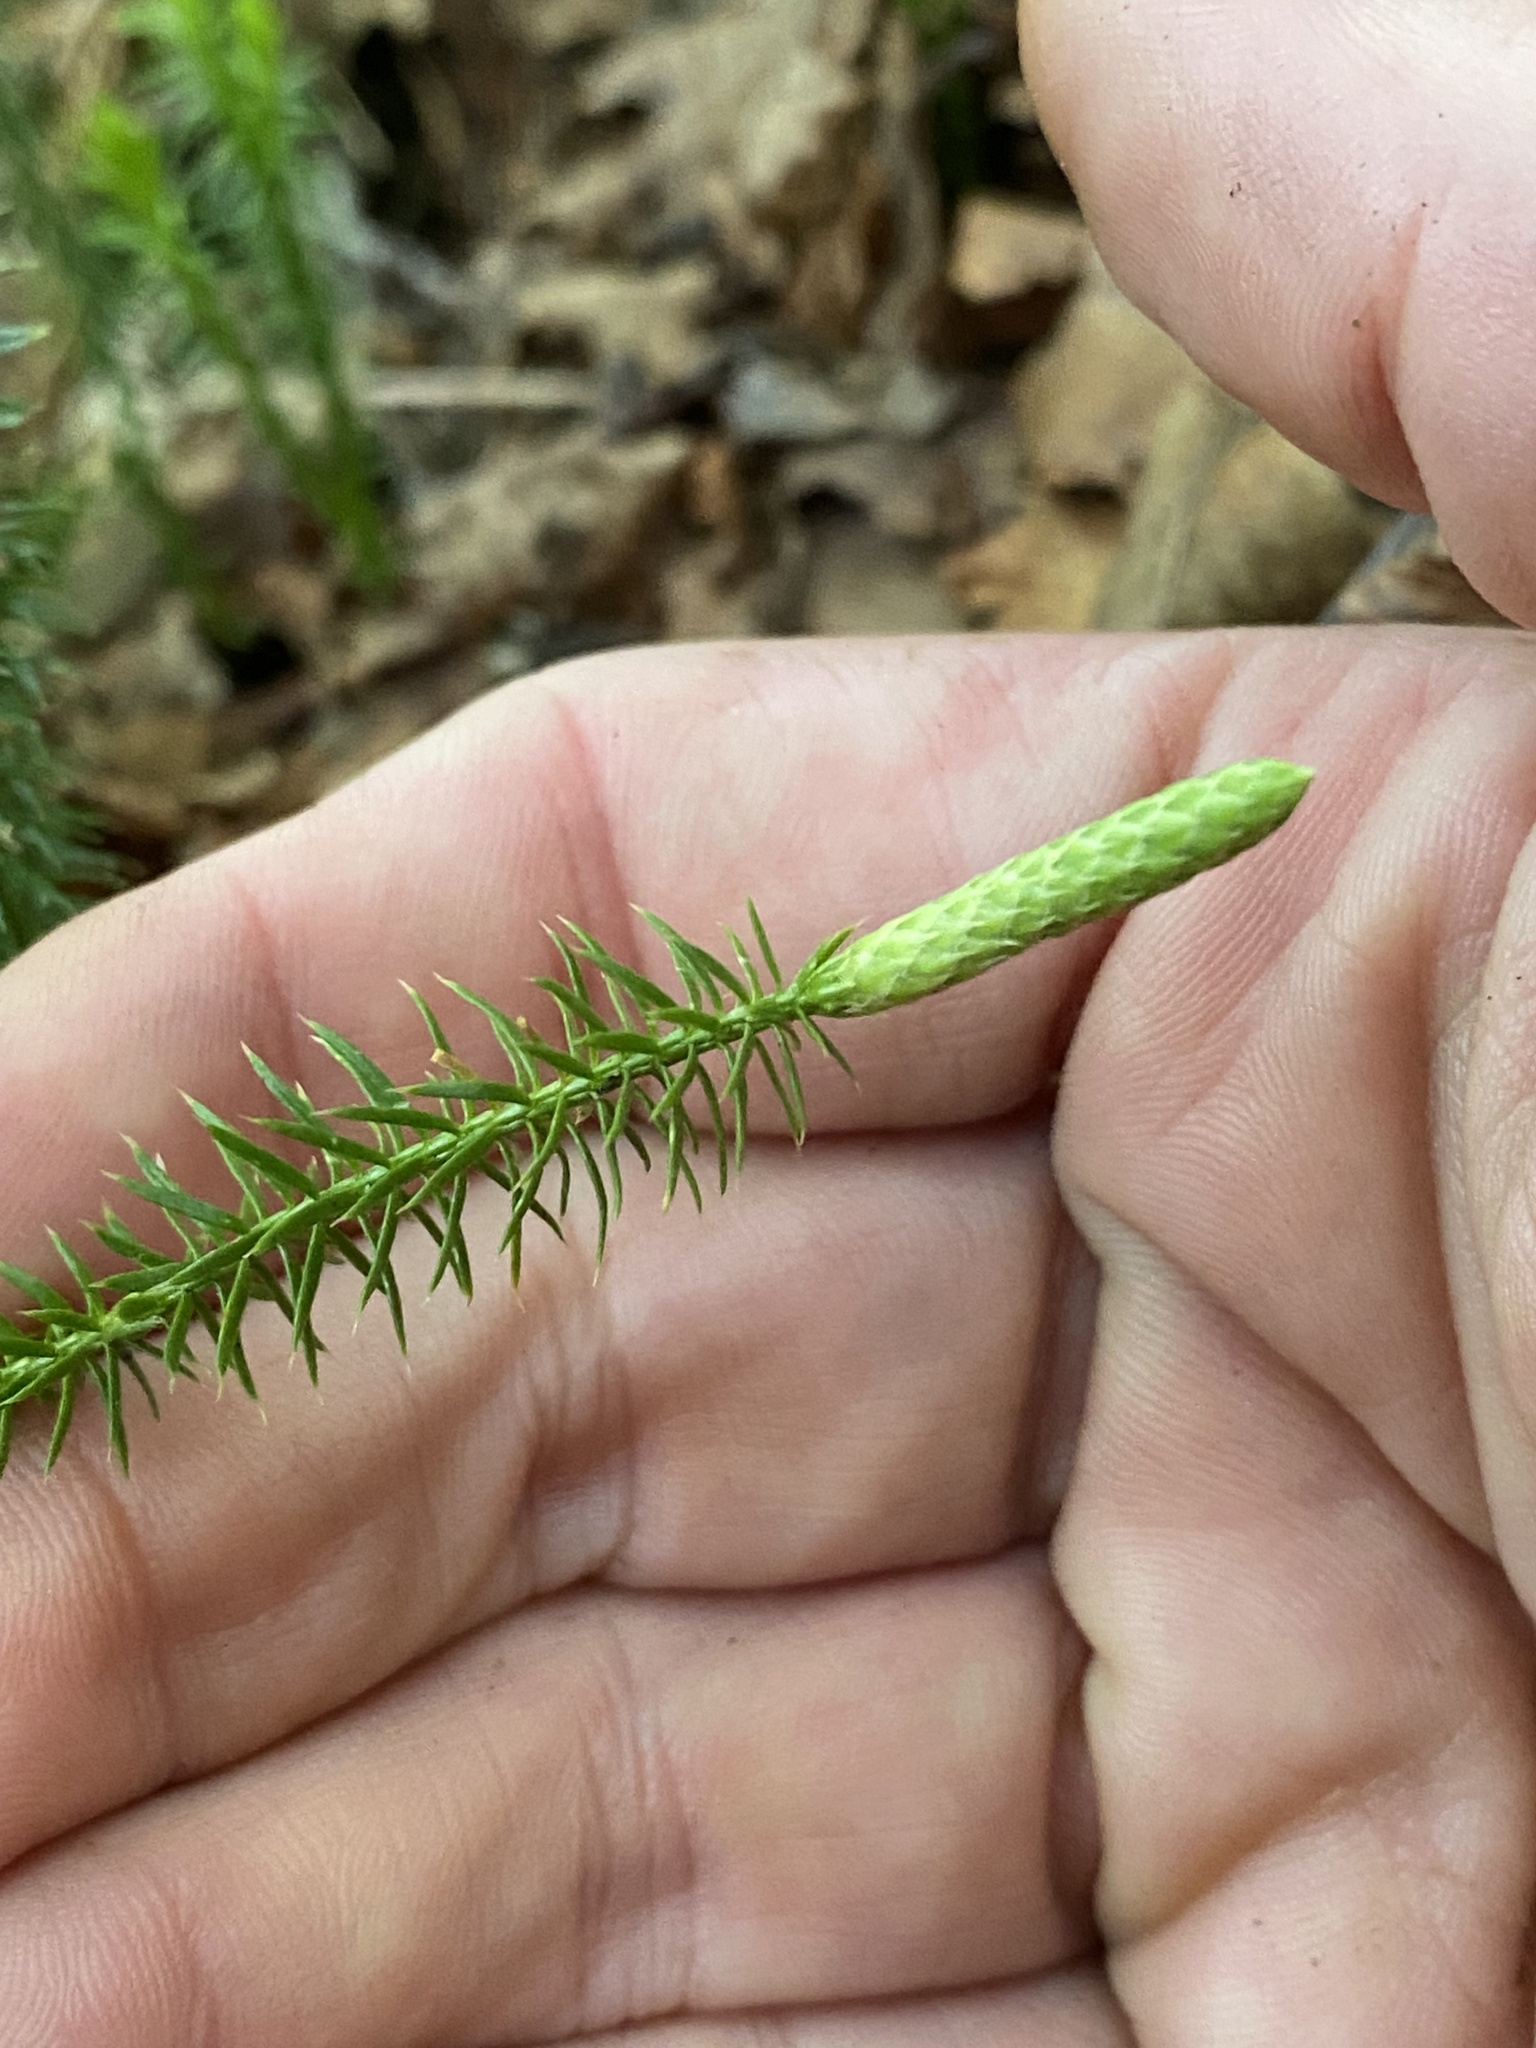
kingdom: Plantae
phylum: Tracheophyta
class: Lycopodiopsida
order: Lycopodiales
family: Lycopodiaceae
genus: Spinulum
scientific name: Spinulum annotinum
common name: Interrupted club-moss
